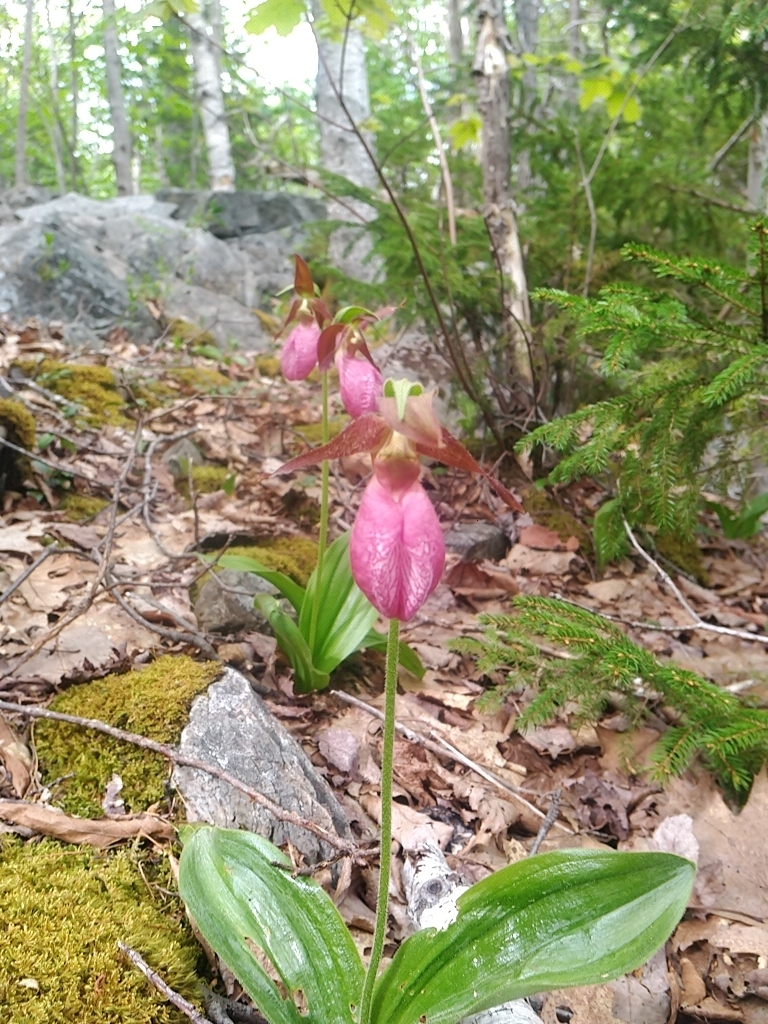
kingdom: Plantae
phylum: Tracheophyta
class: Liliopsida
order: Asparagales
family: Orchidaceae
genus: Cypripedium
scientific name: Cypripedium acaule
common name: Pink lady's-slipper
